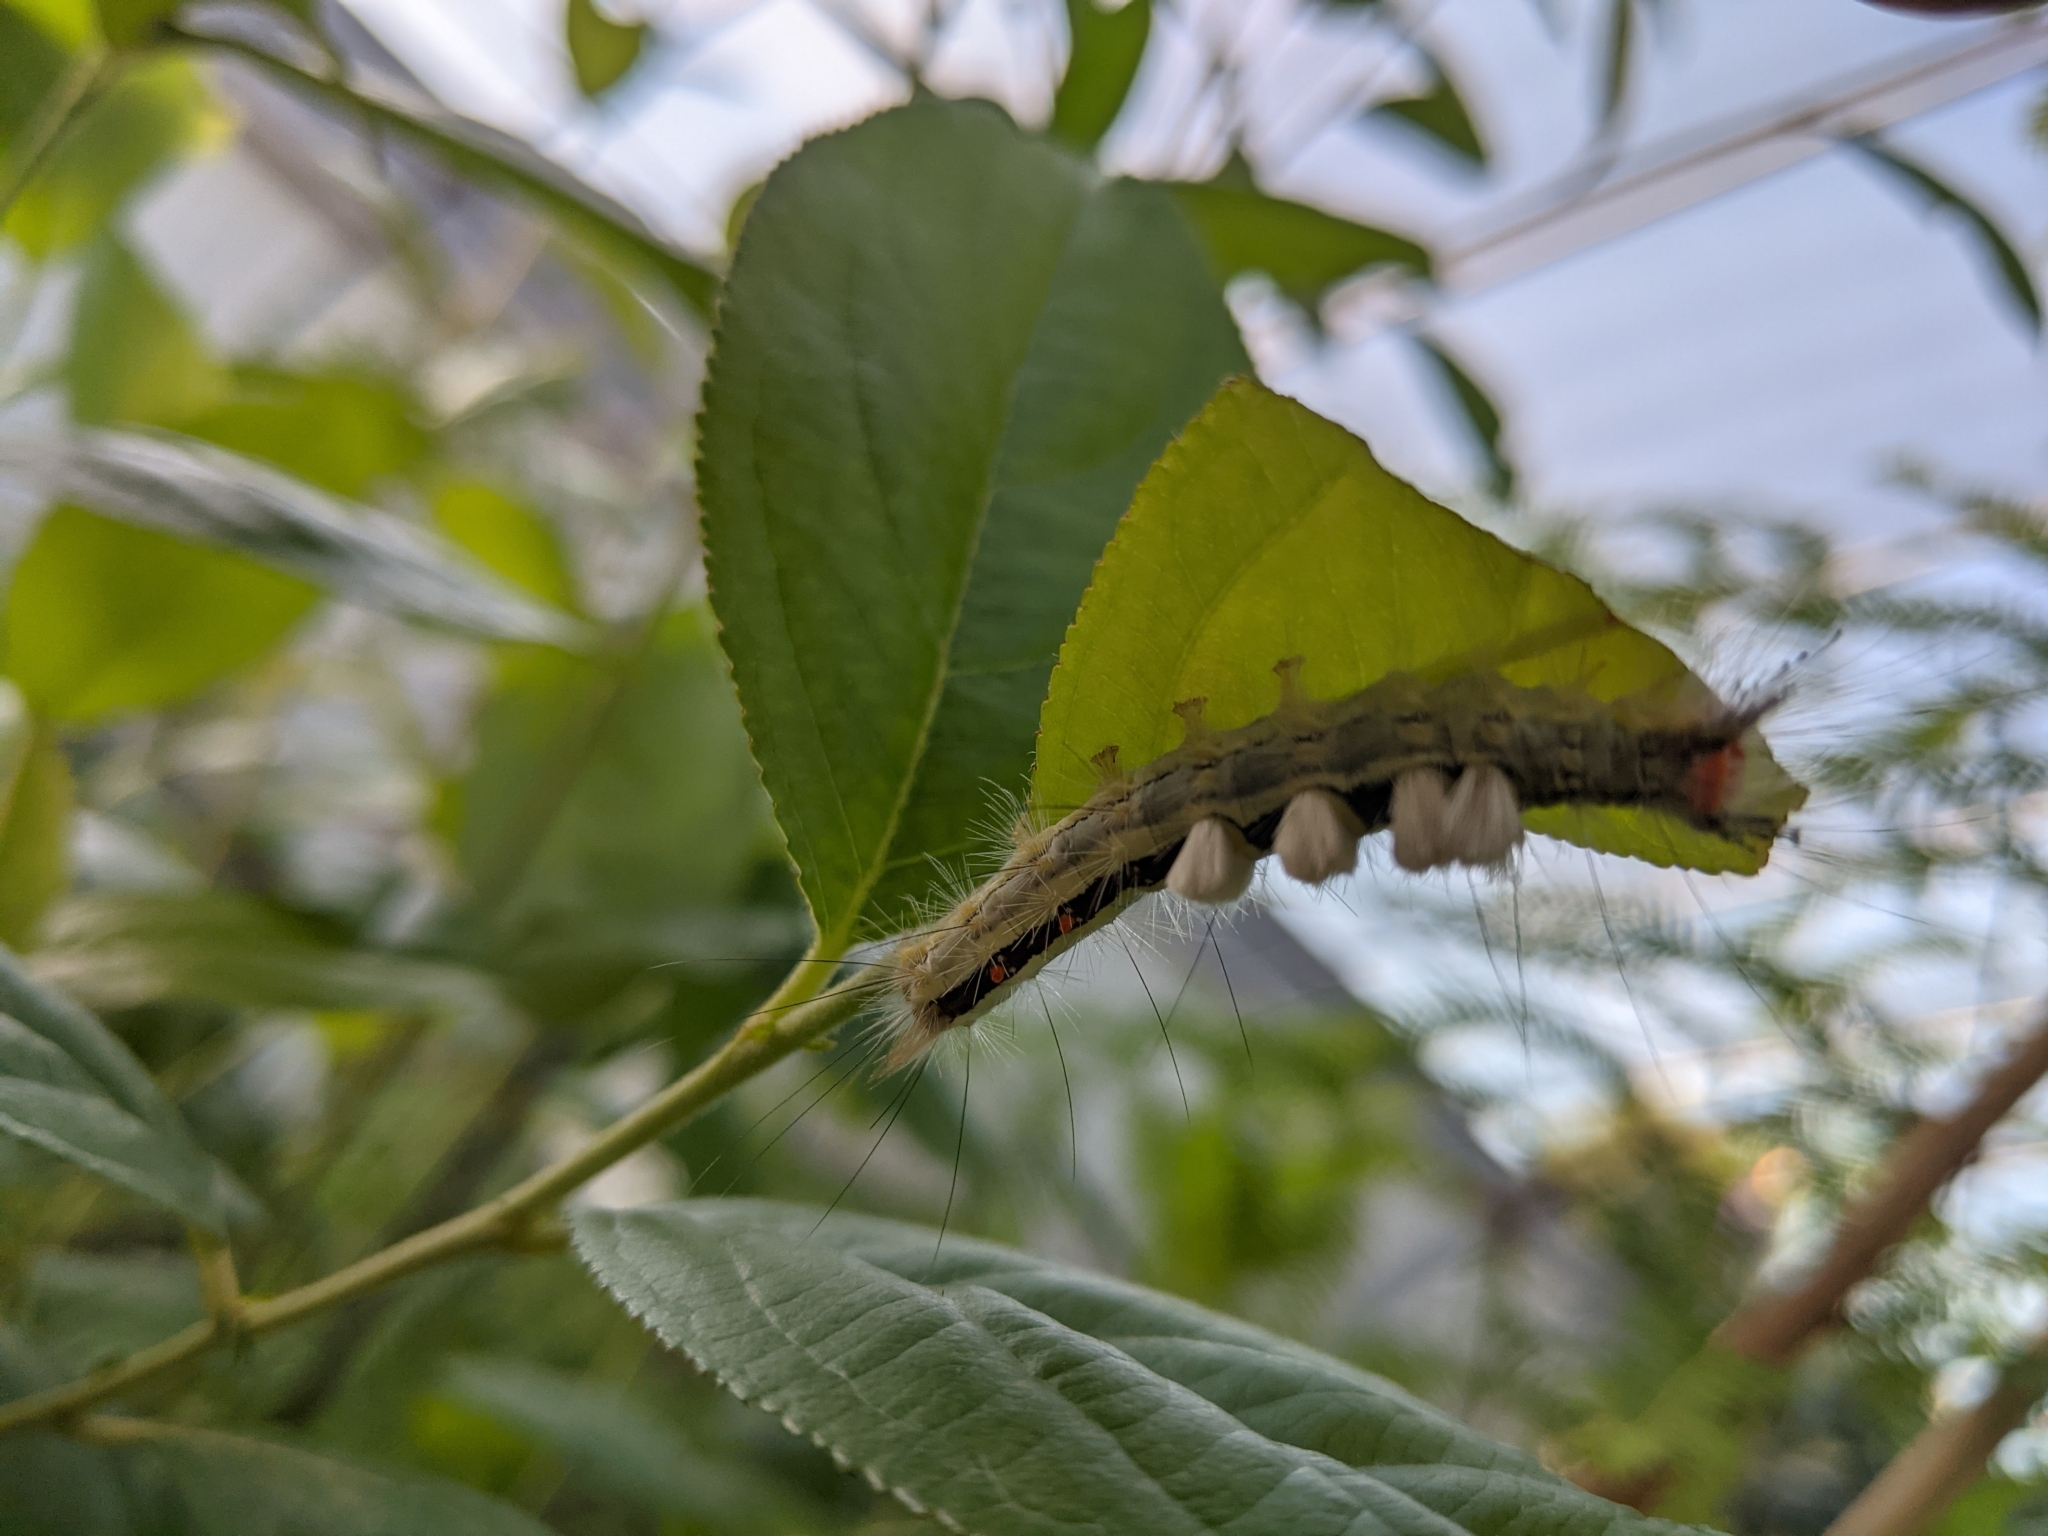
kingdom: Animalia
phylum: Arthropoda
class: Insecta
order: Lepidoptera
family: Erebidae
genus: Orgyia
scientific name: Orgyia leucostigma
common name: White-marked tussock moth
